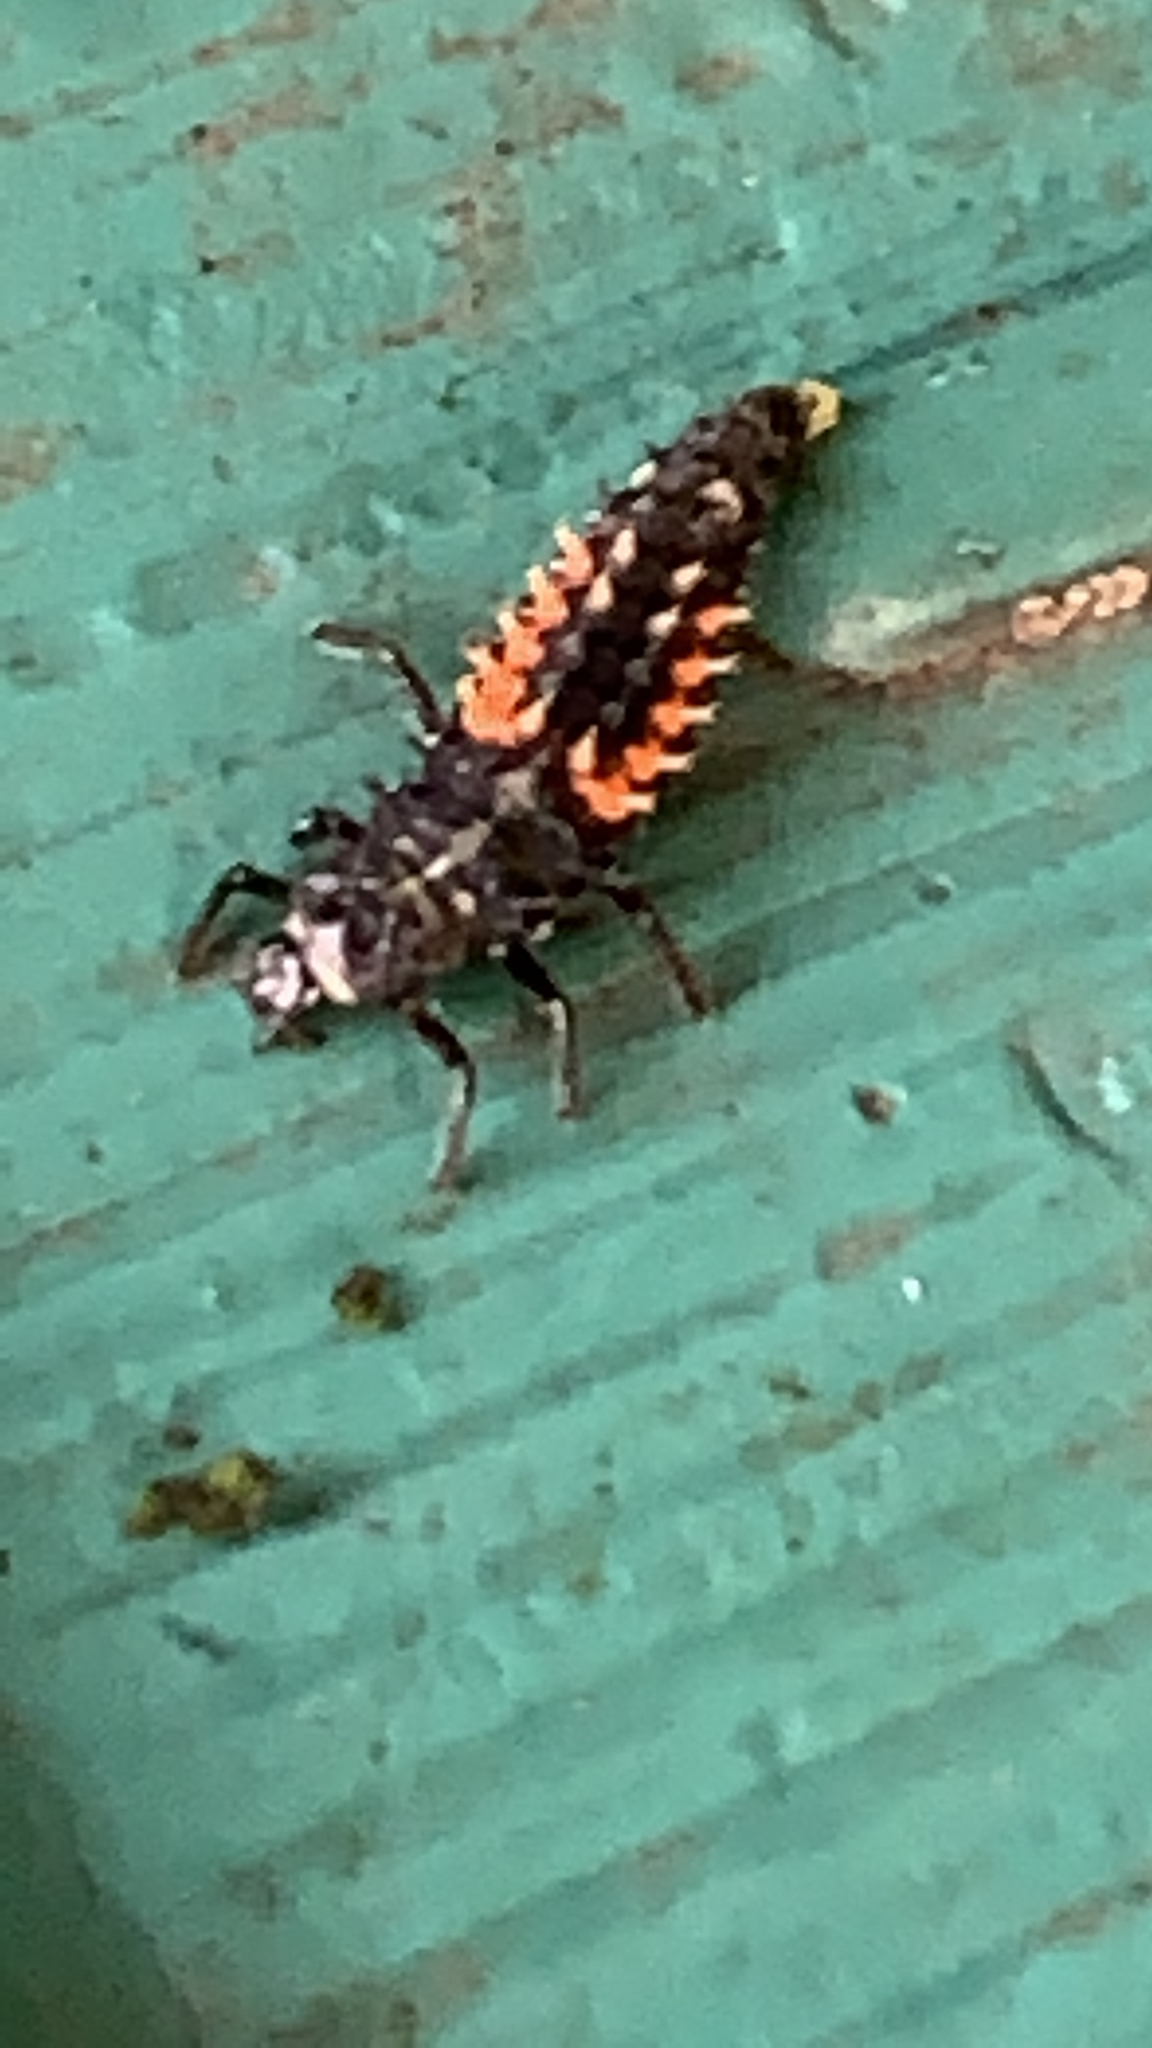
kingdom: Animalia
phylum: Arthropoda
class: Insecta
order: Coleoptera
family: Coccinellidae
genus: Harmonia
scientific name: Harmonia axyridis
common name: Harlequin ladybird
